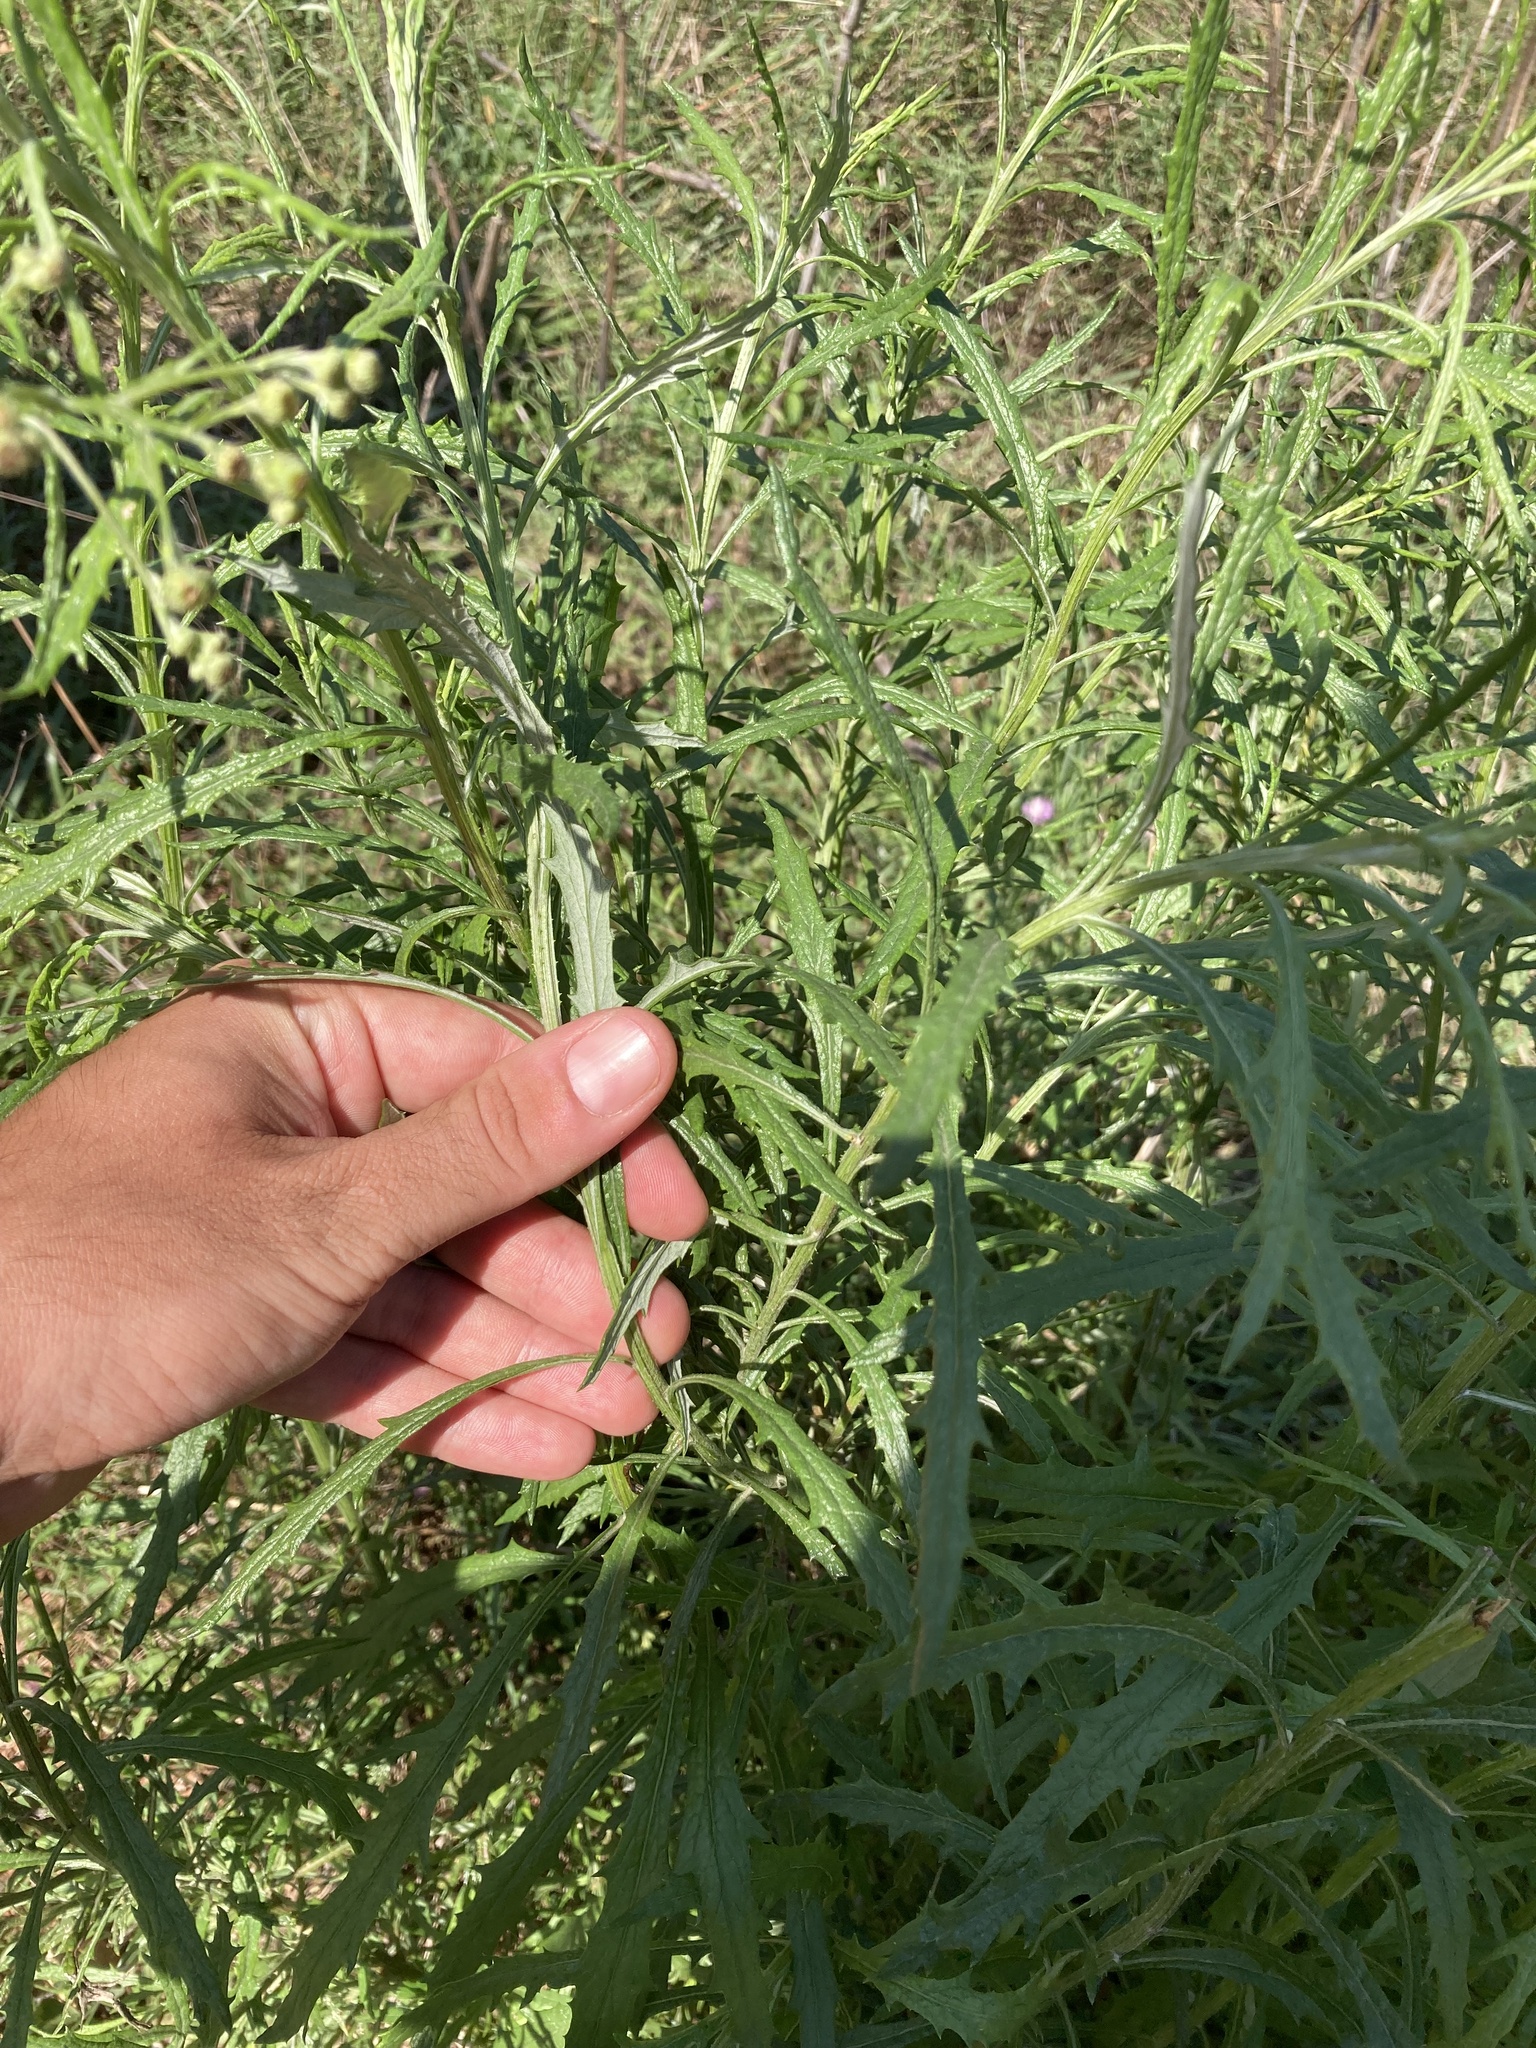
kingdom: Plantae
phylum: Tracheophyta
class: Magnoliopsida
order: Asterales
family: Asteraceae
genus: Senecio
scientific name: Senecio pterophorus
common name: Shoddy ragwort
